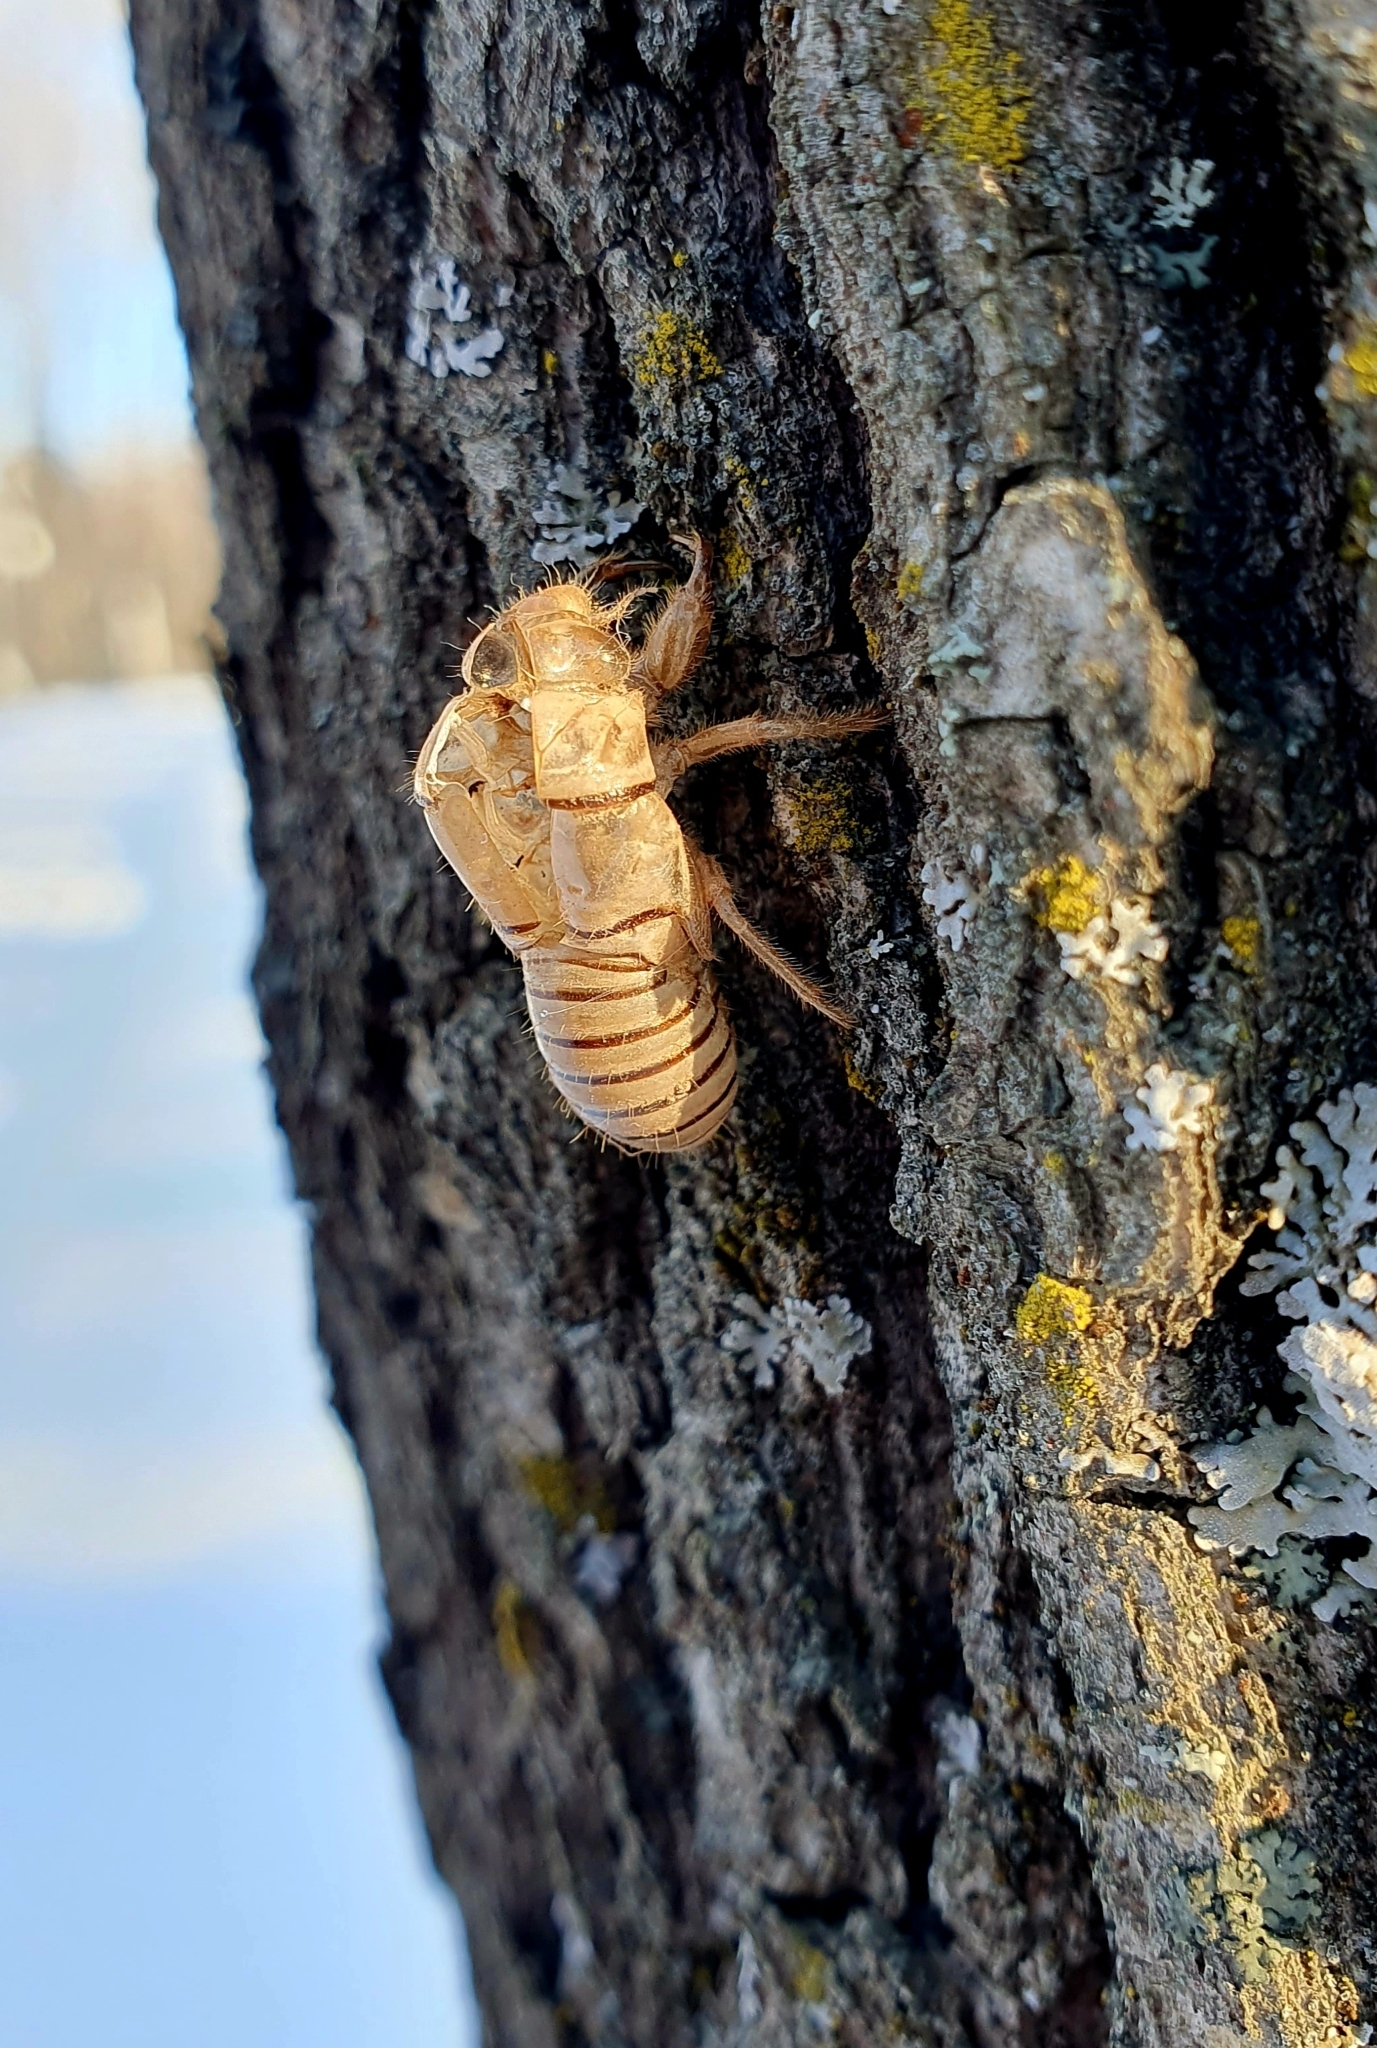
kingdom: Animalia
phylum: Arthropoda
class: Insecta
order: Hemiptera
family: Cicadidae
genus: Cicadetta
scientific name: Cicadetta montana
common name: New forest cicada
